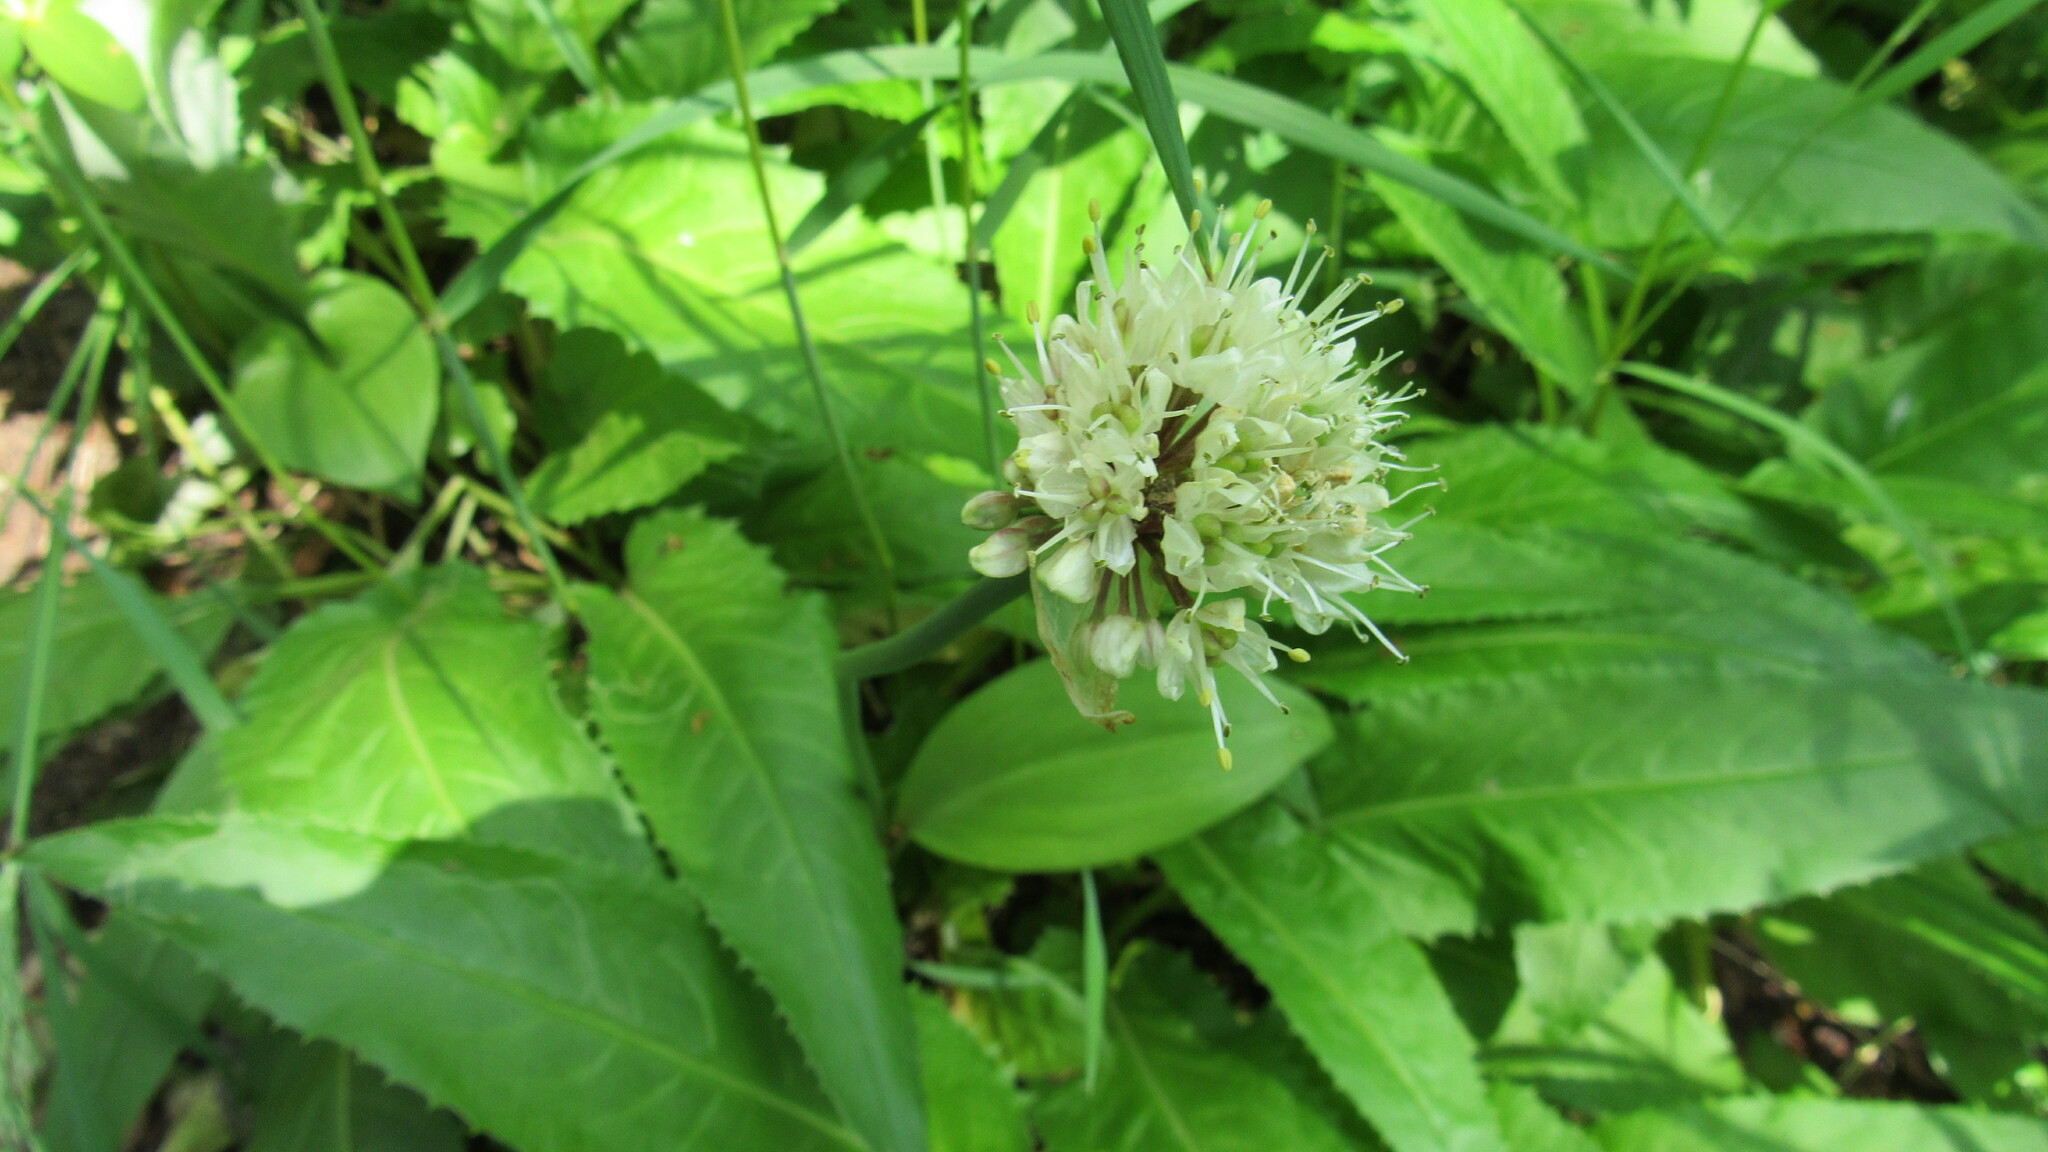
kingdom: Plantae
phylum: Tracheophyta
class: Liliopsida
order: Asparagales
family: Amaryllidaceae
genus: Allium
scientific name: Allium ochotense
